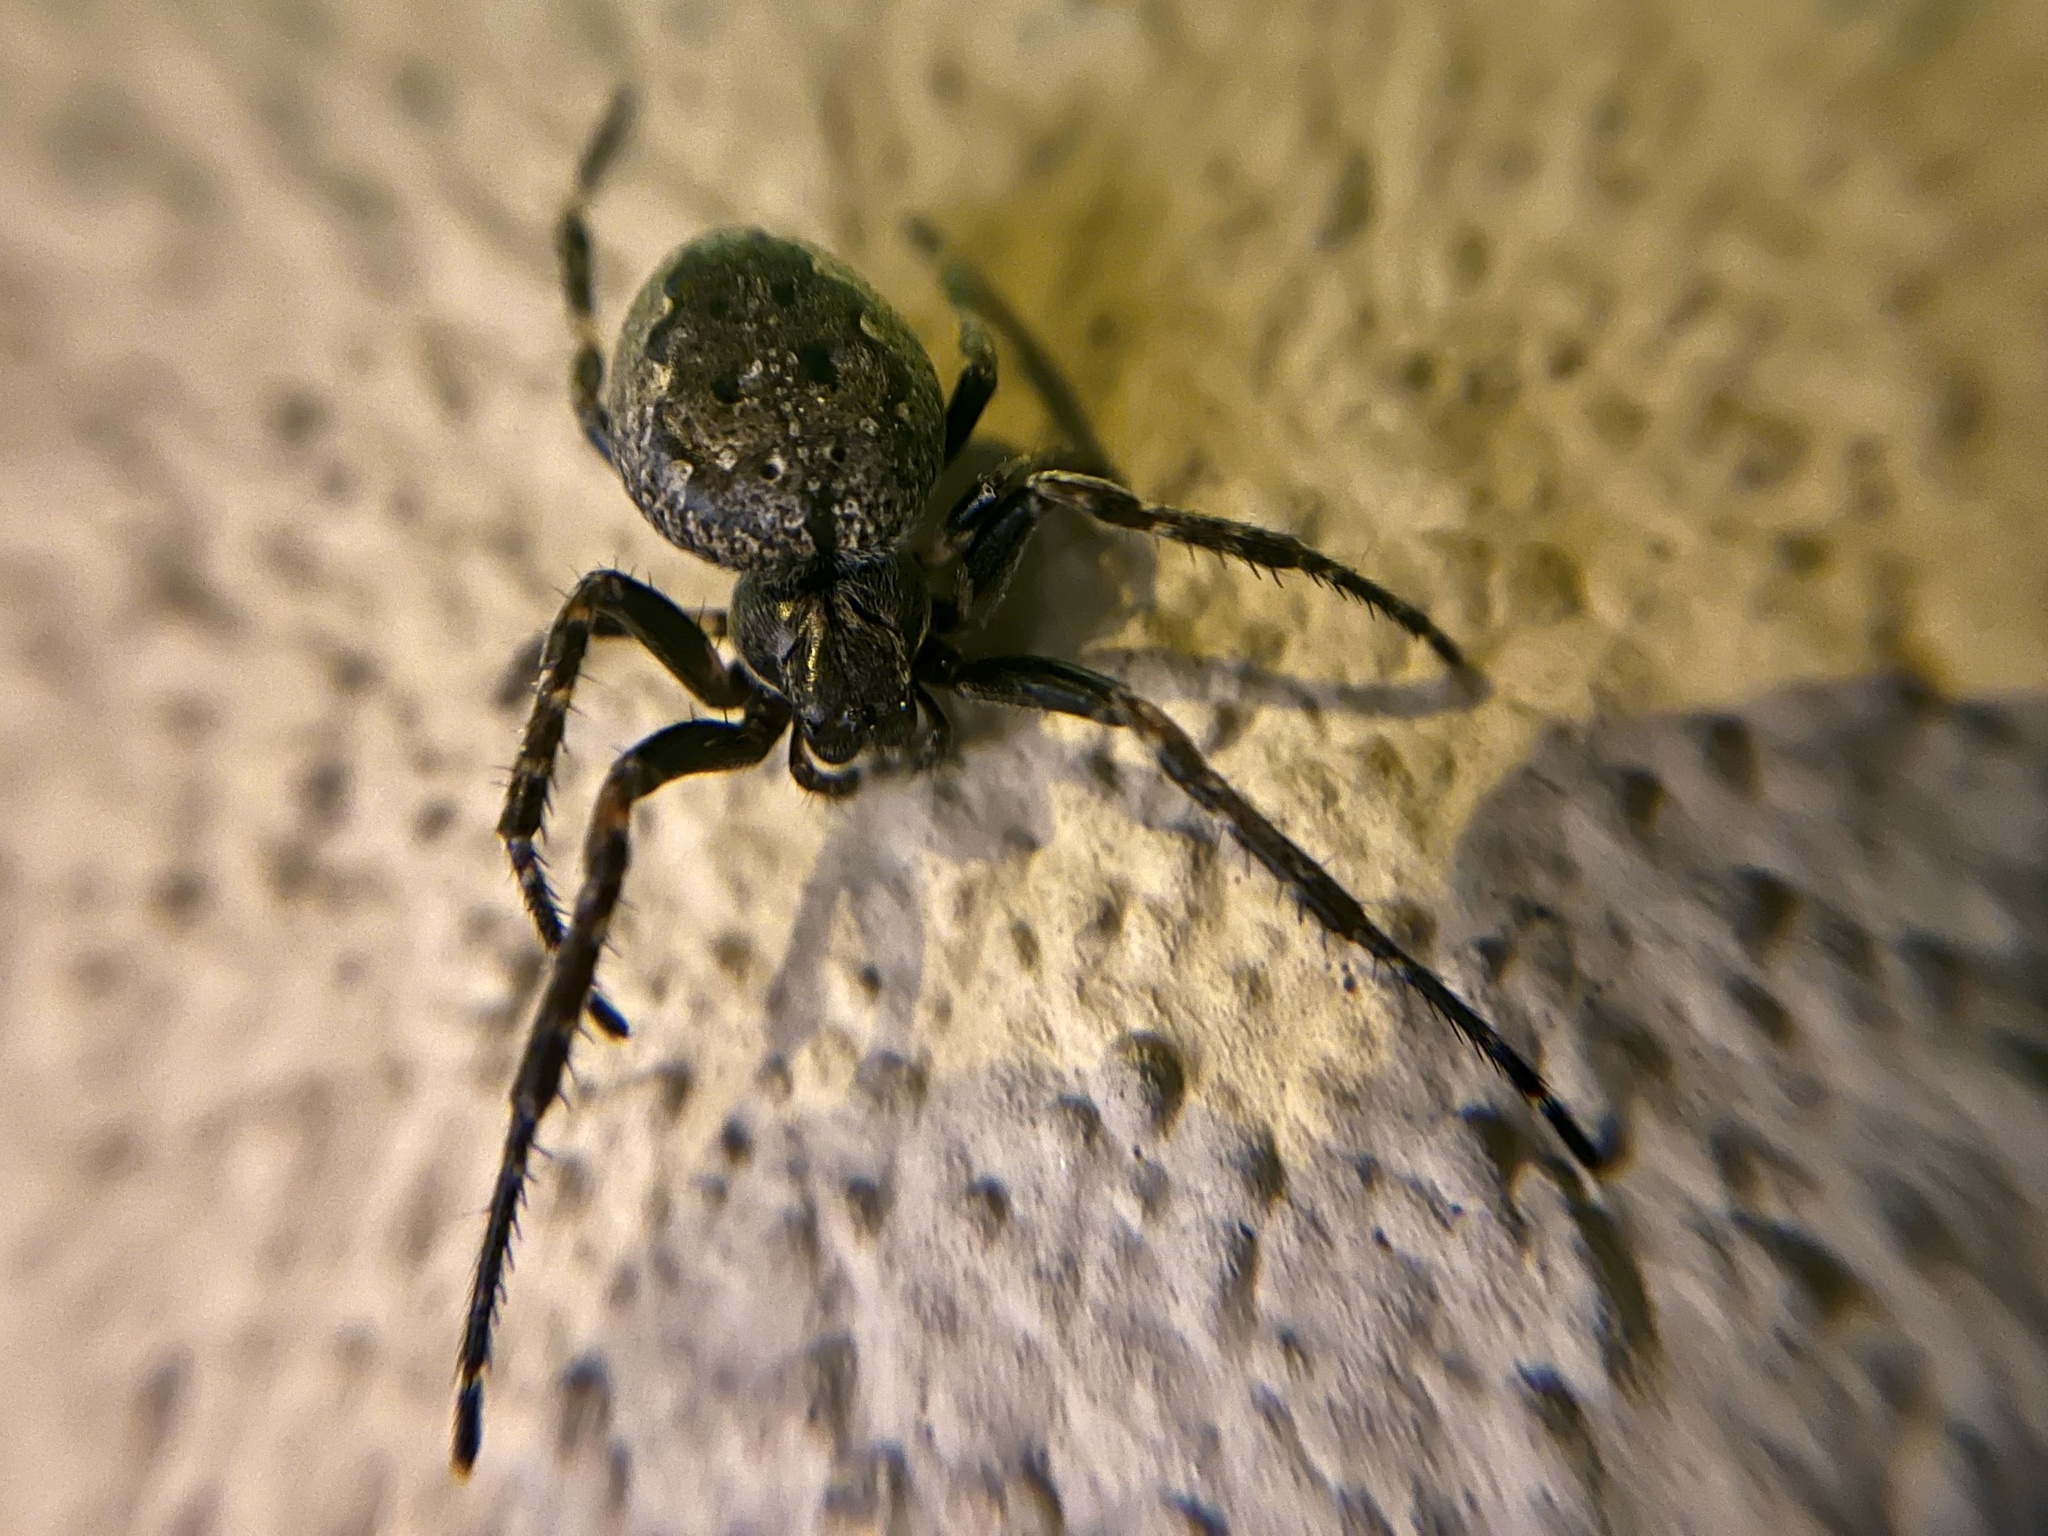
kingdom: Animalia
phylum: Arthropoda
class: Arachnida
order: Araneae
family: Araneidae
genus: Nuctenea
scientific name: Nuctenea umbratica
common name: Toad spider
